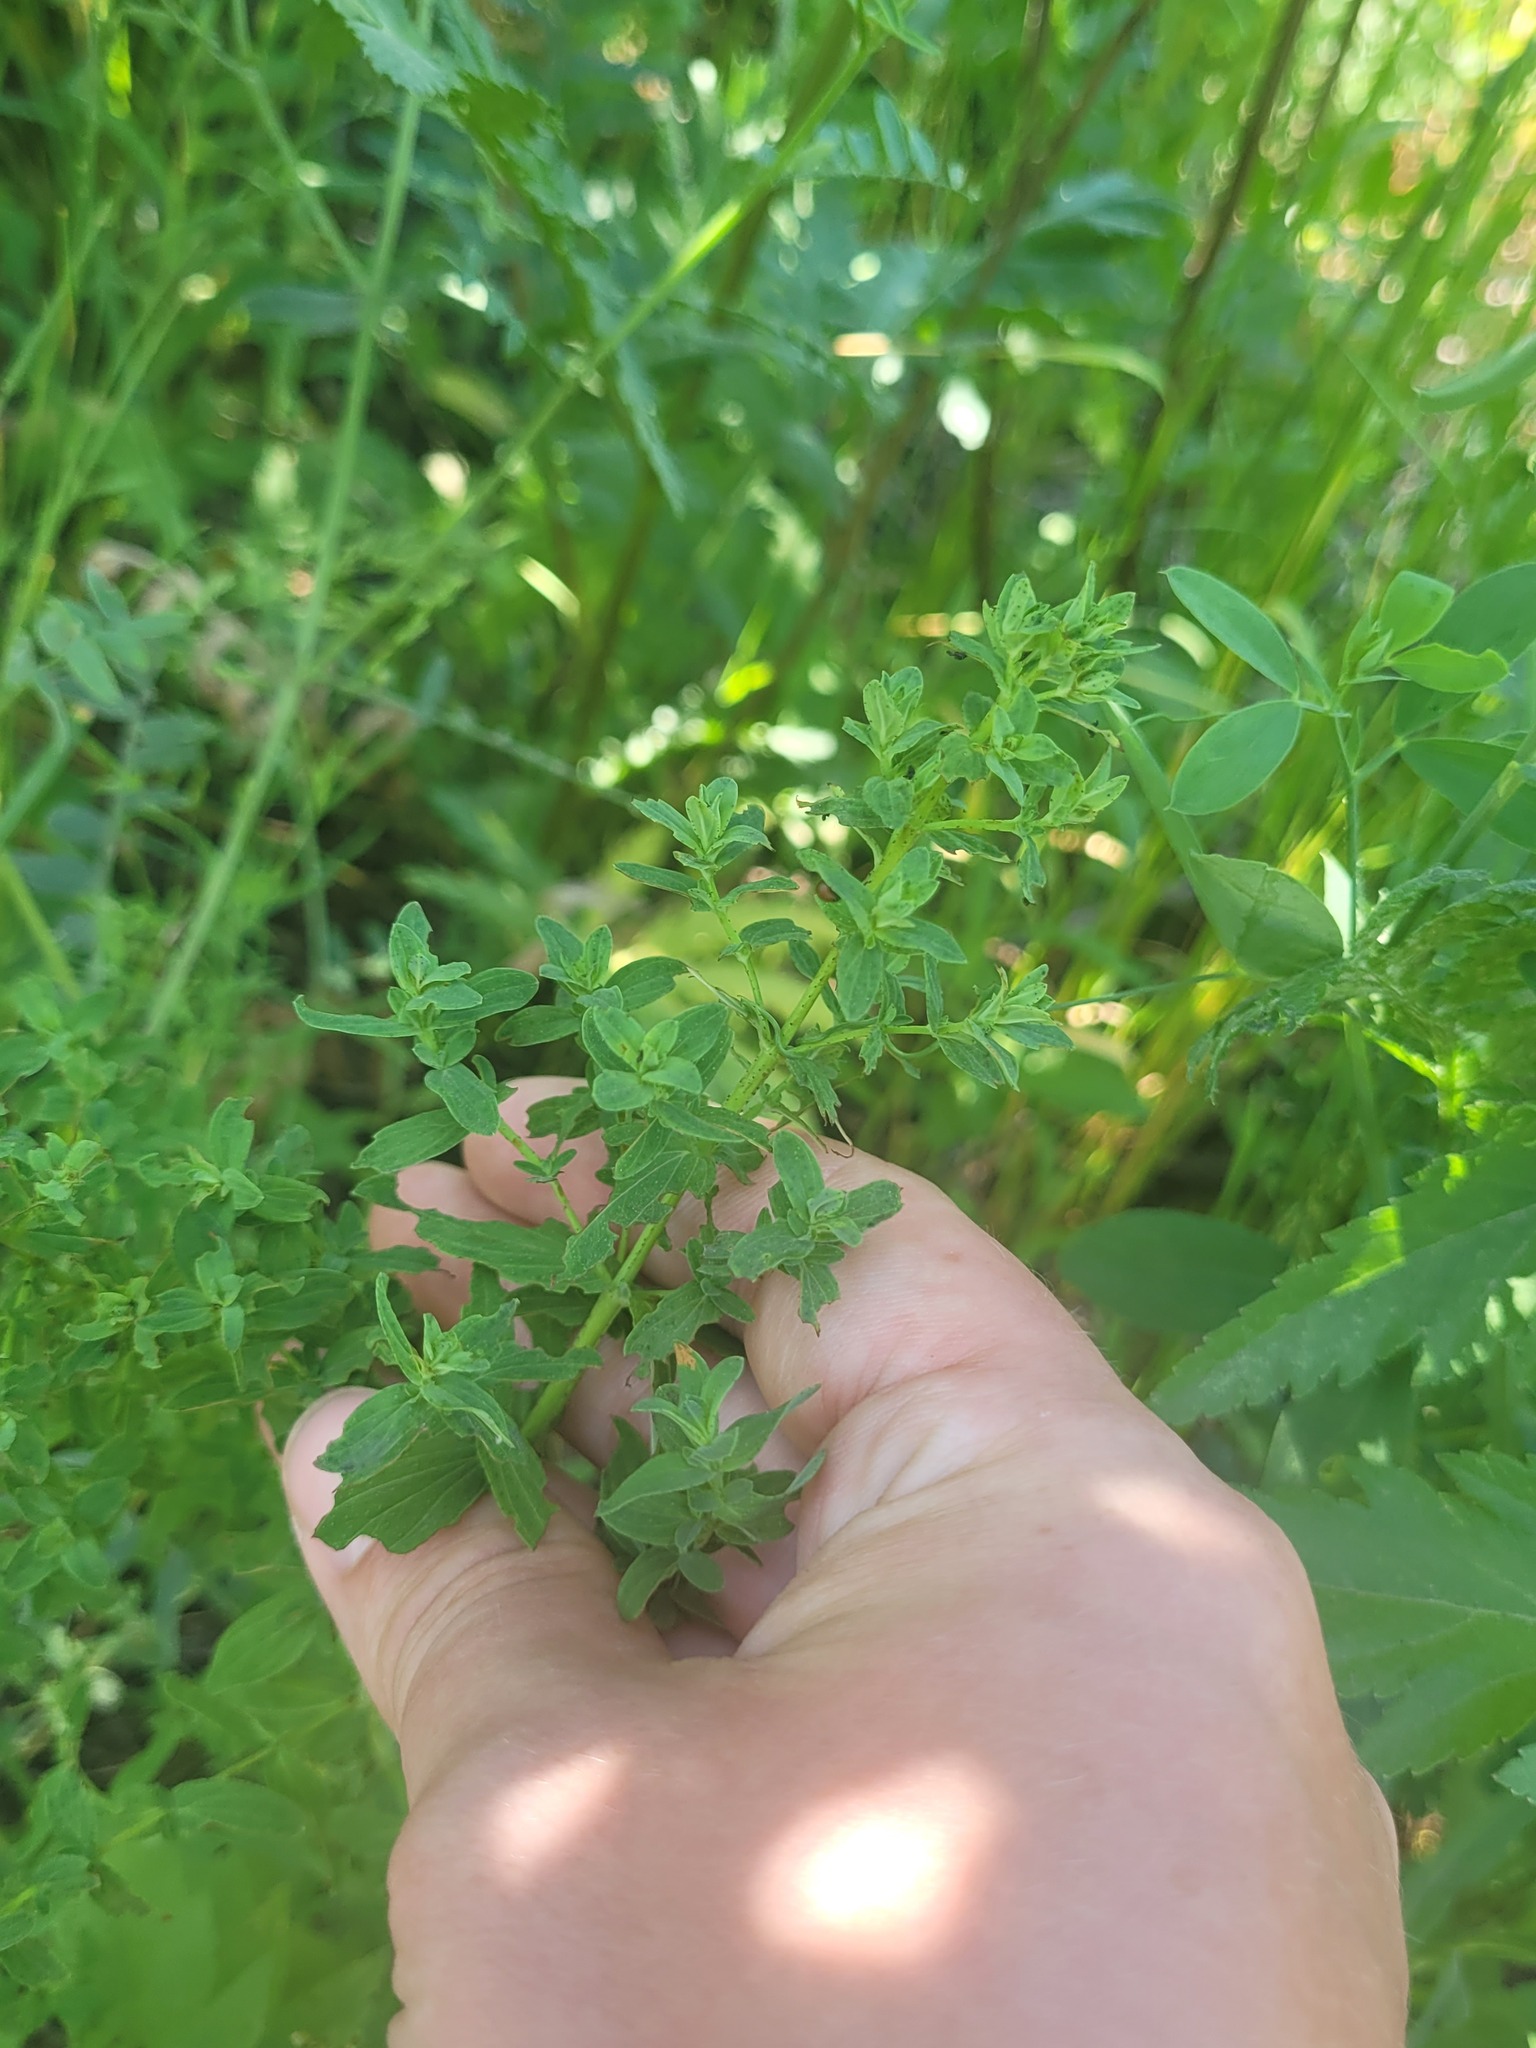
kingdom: Plantae
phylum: Tracheophyta
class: Magnoliopsida
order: Malpighiales
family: Hypericaceae
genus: Hypericum
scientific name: Hypericum perforatum
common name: Common st. johnswort
